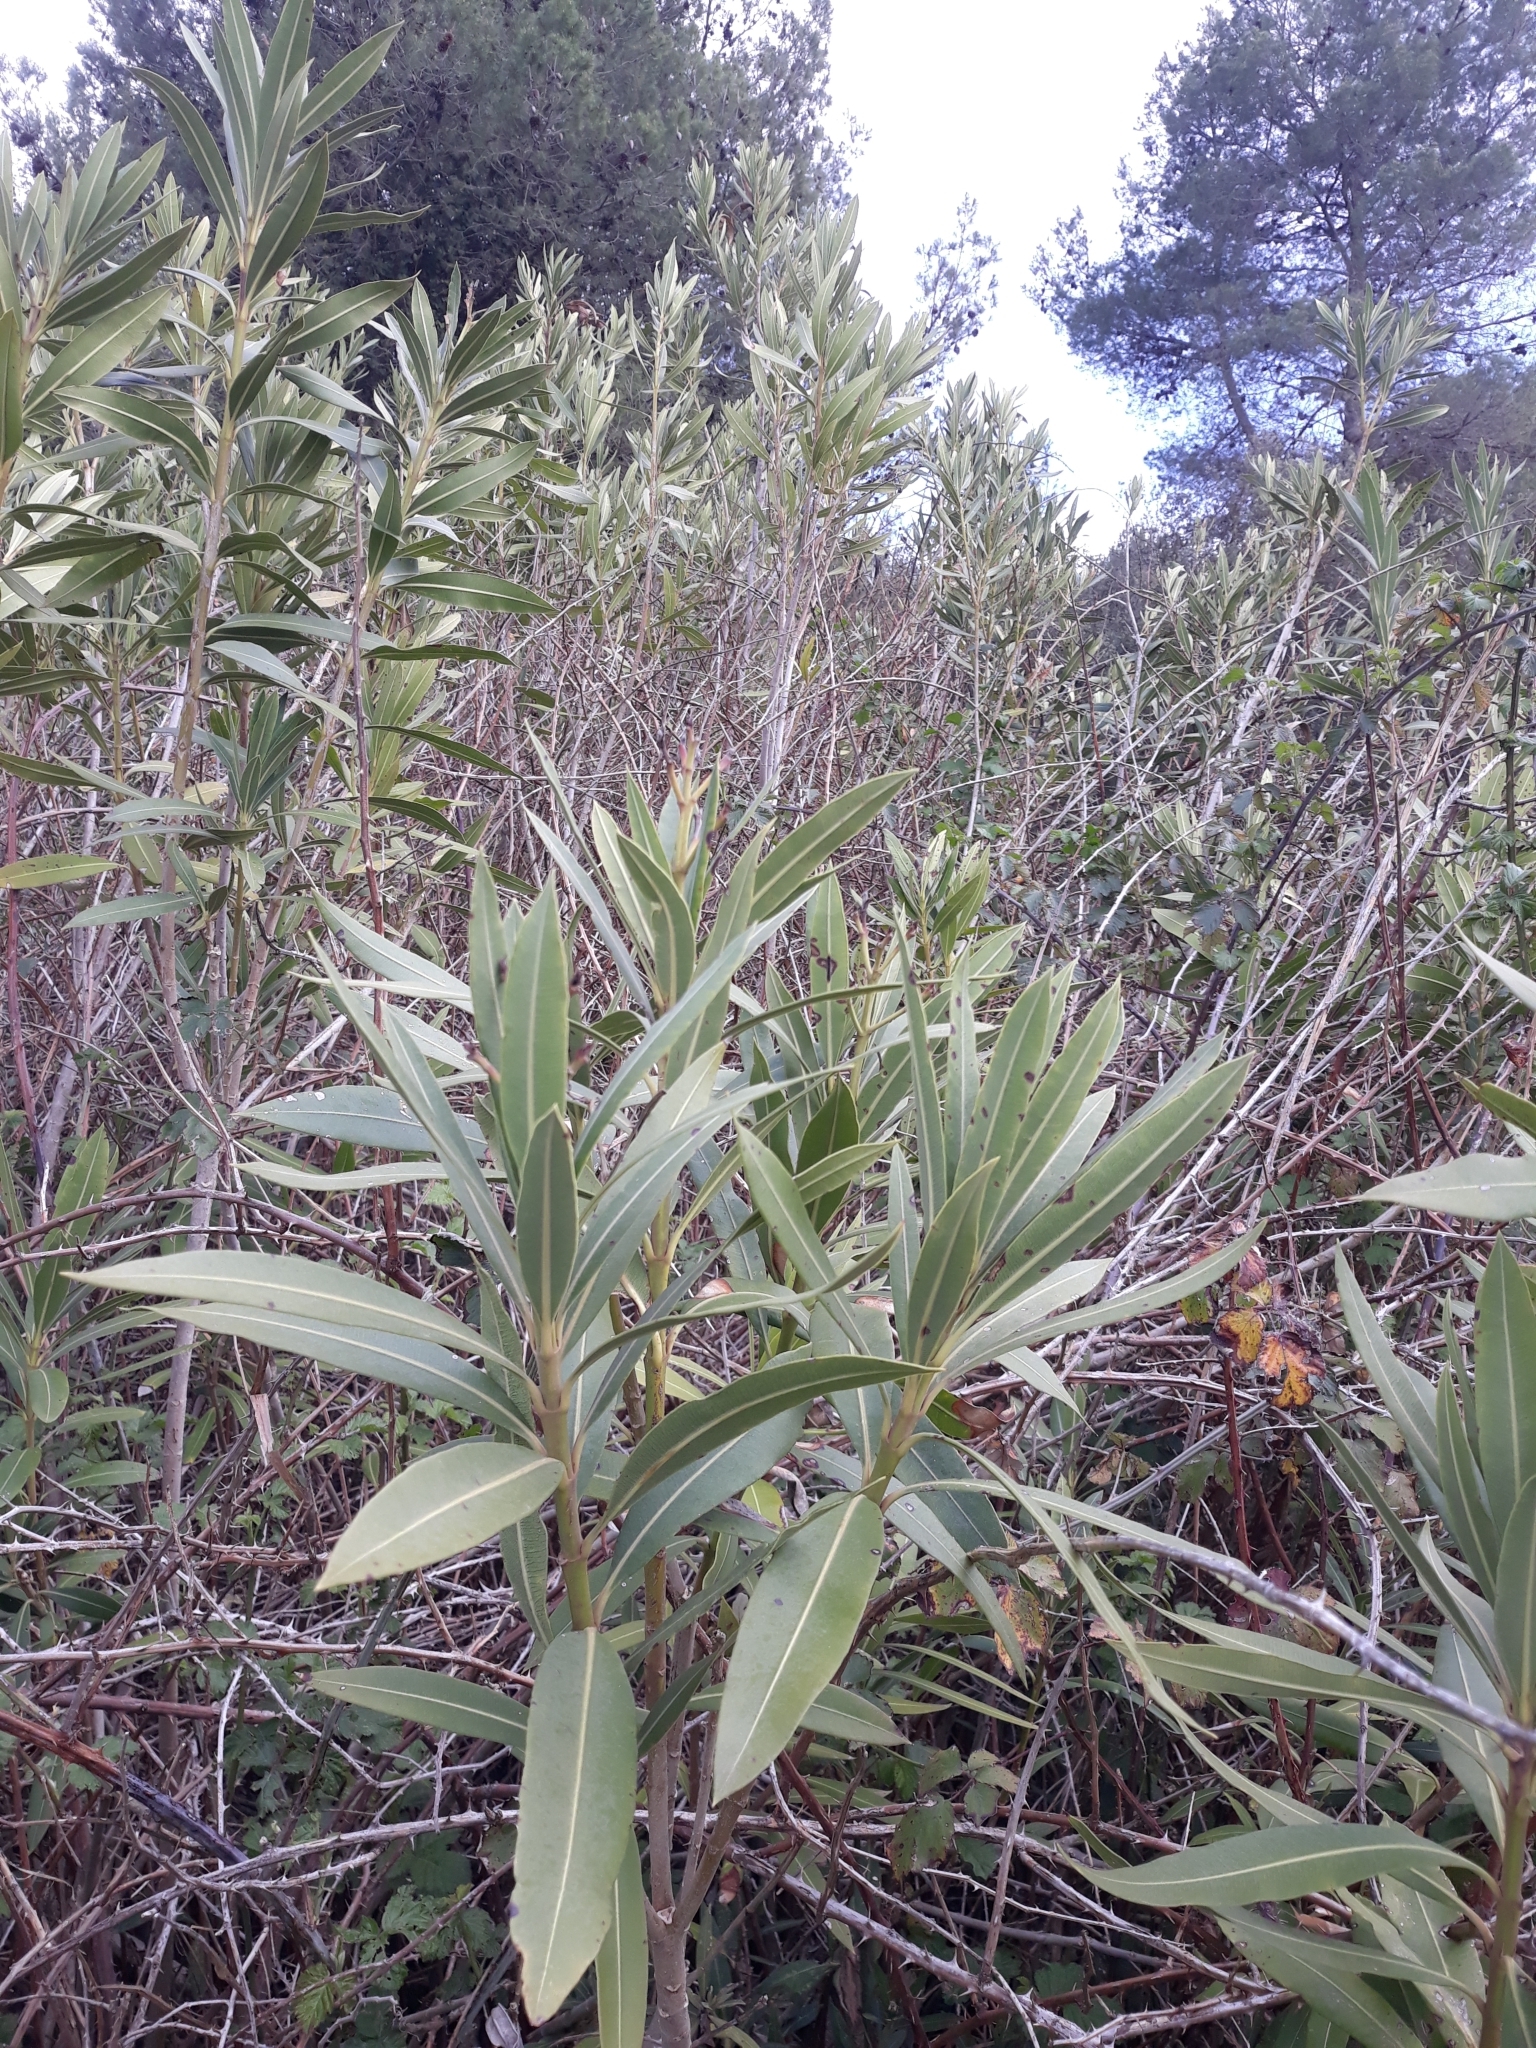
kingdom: Plantae
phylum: Tracheophyta
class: Magnoliopsida
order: Gentianales
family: Apocynaceae
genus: Nerium
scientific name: Nerium oleander
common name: Oleander
